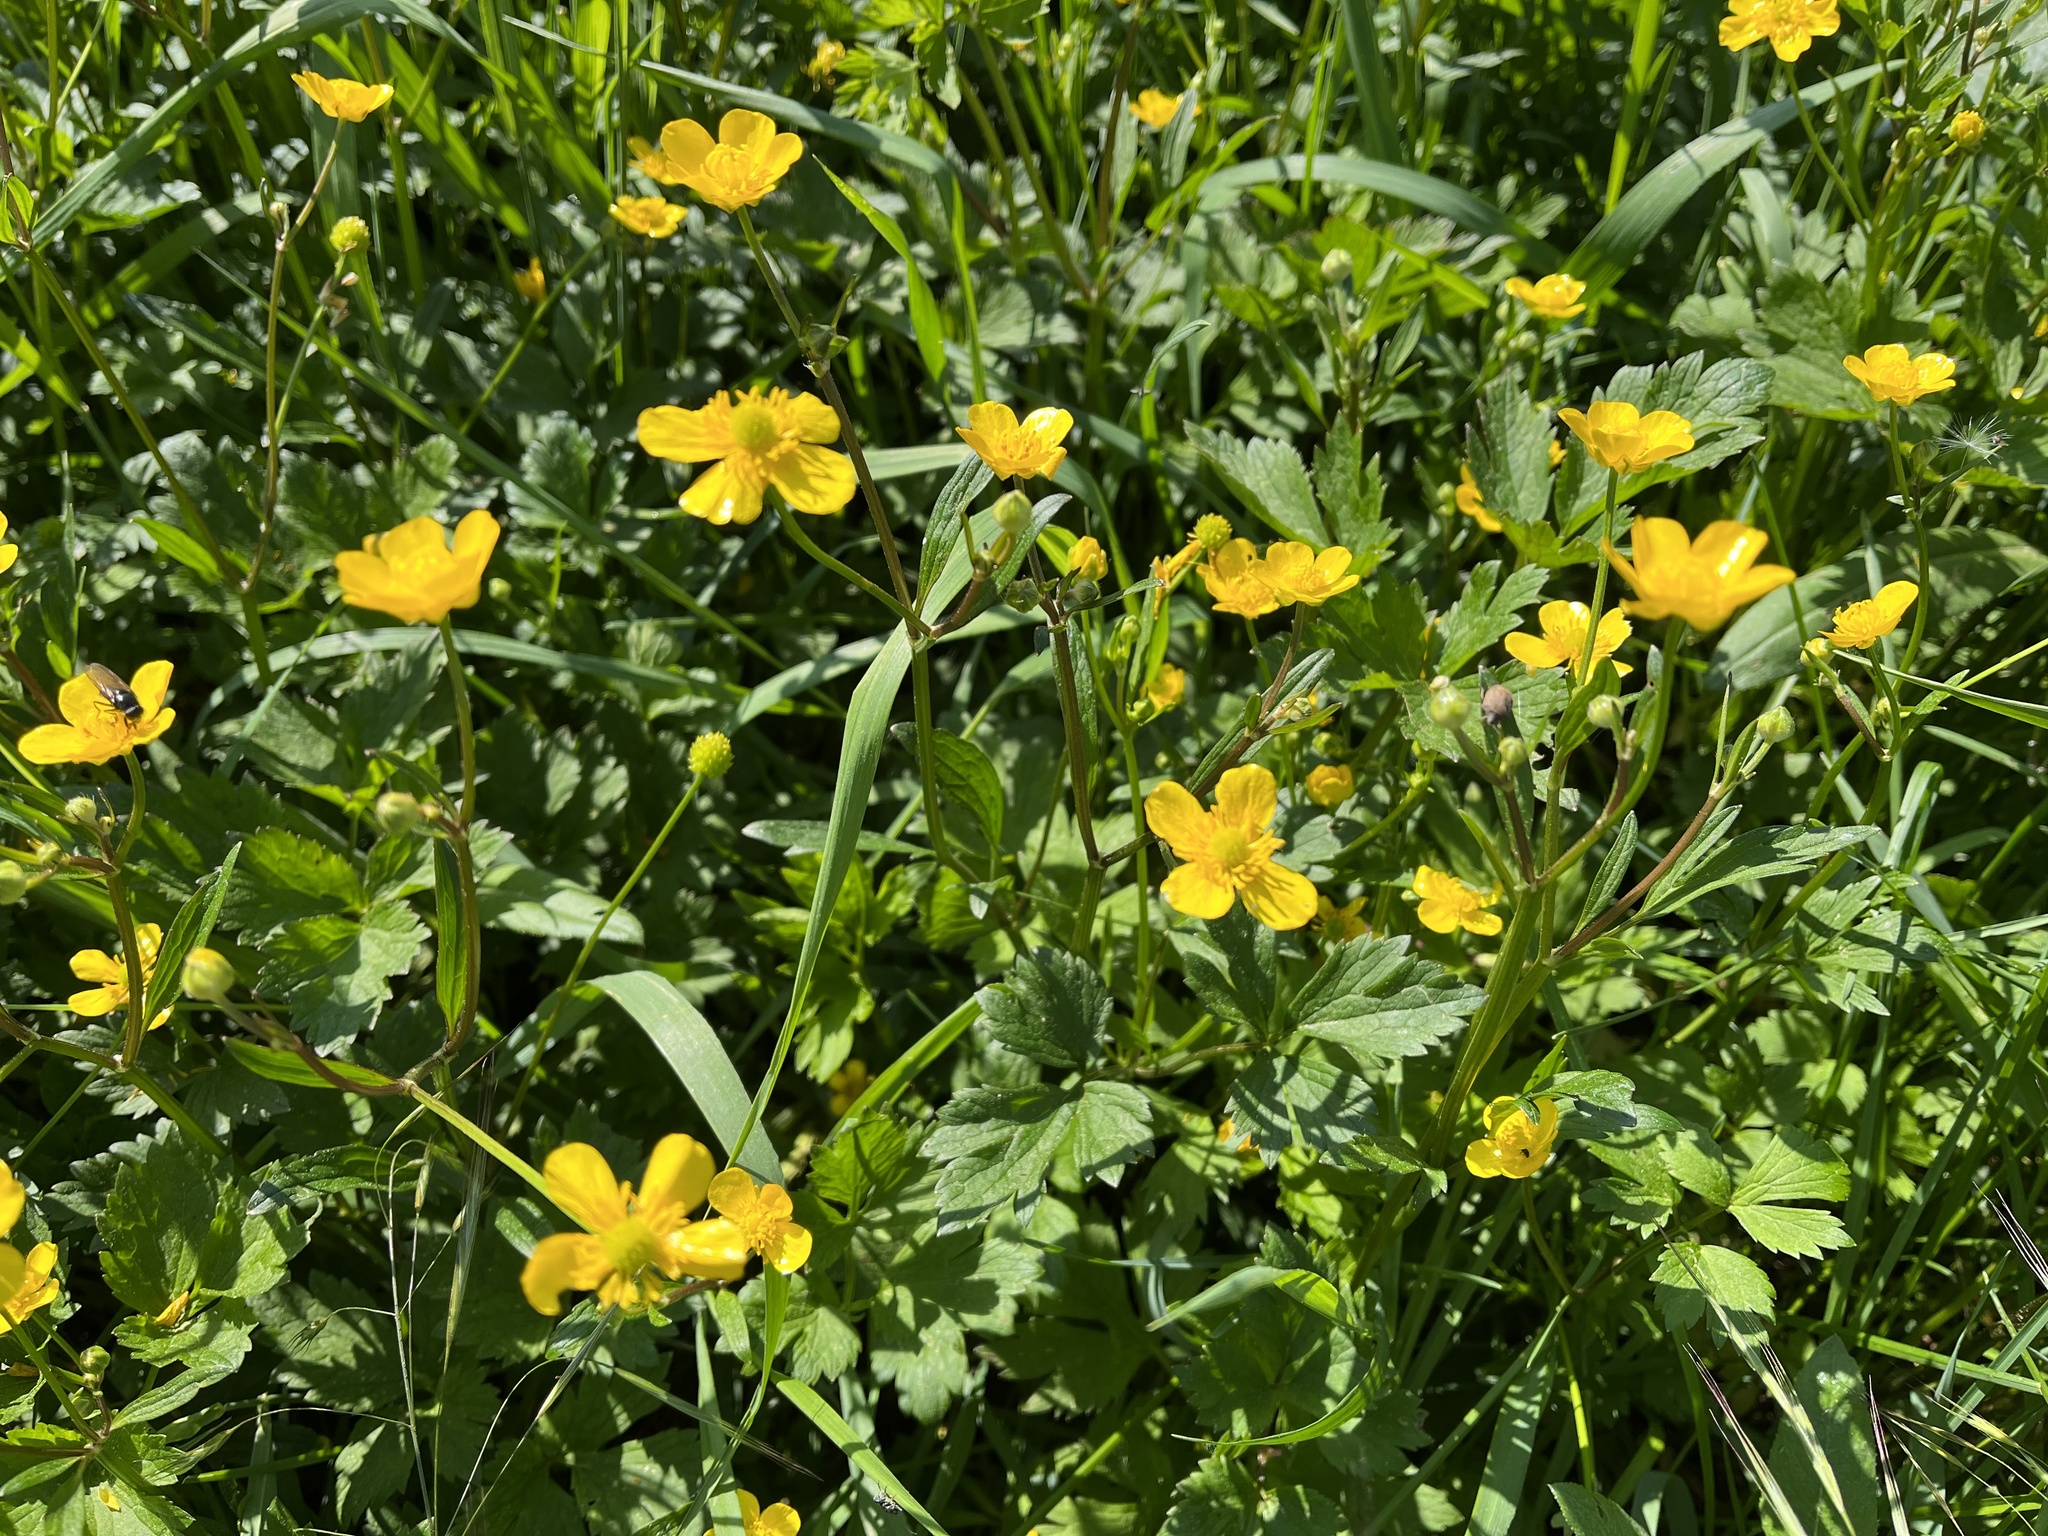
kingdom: Plantae
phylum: Tracheophyta
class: Magnoliopsida
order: Ranunculales
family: Ranunculaceae
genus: Ranunculus
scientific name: Ranunculus repens
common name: Creeping buttercup
